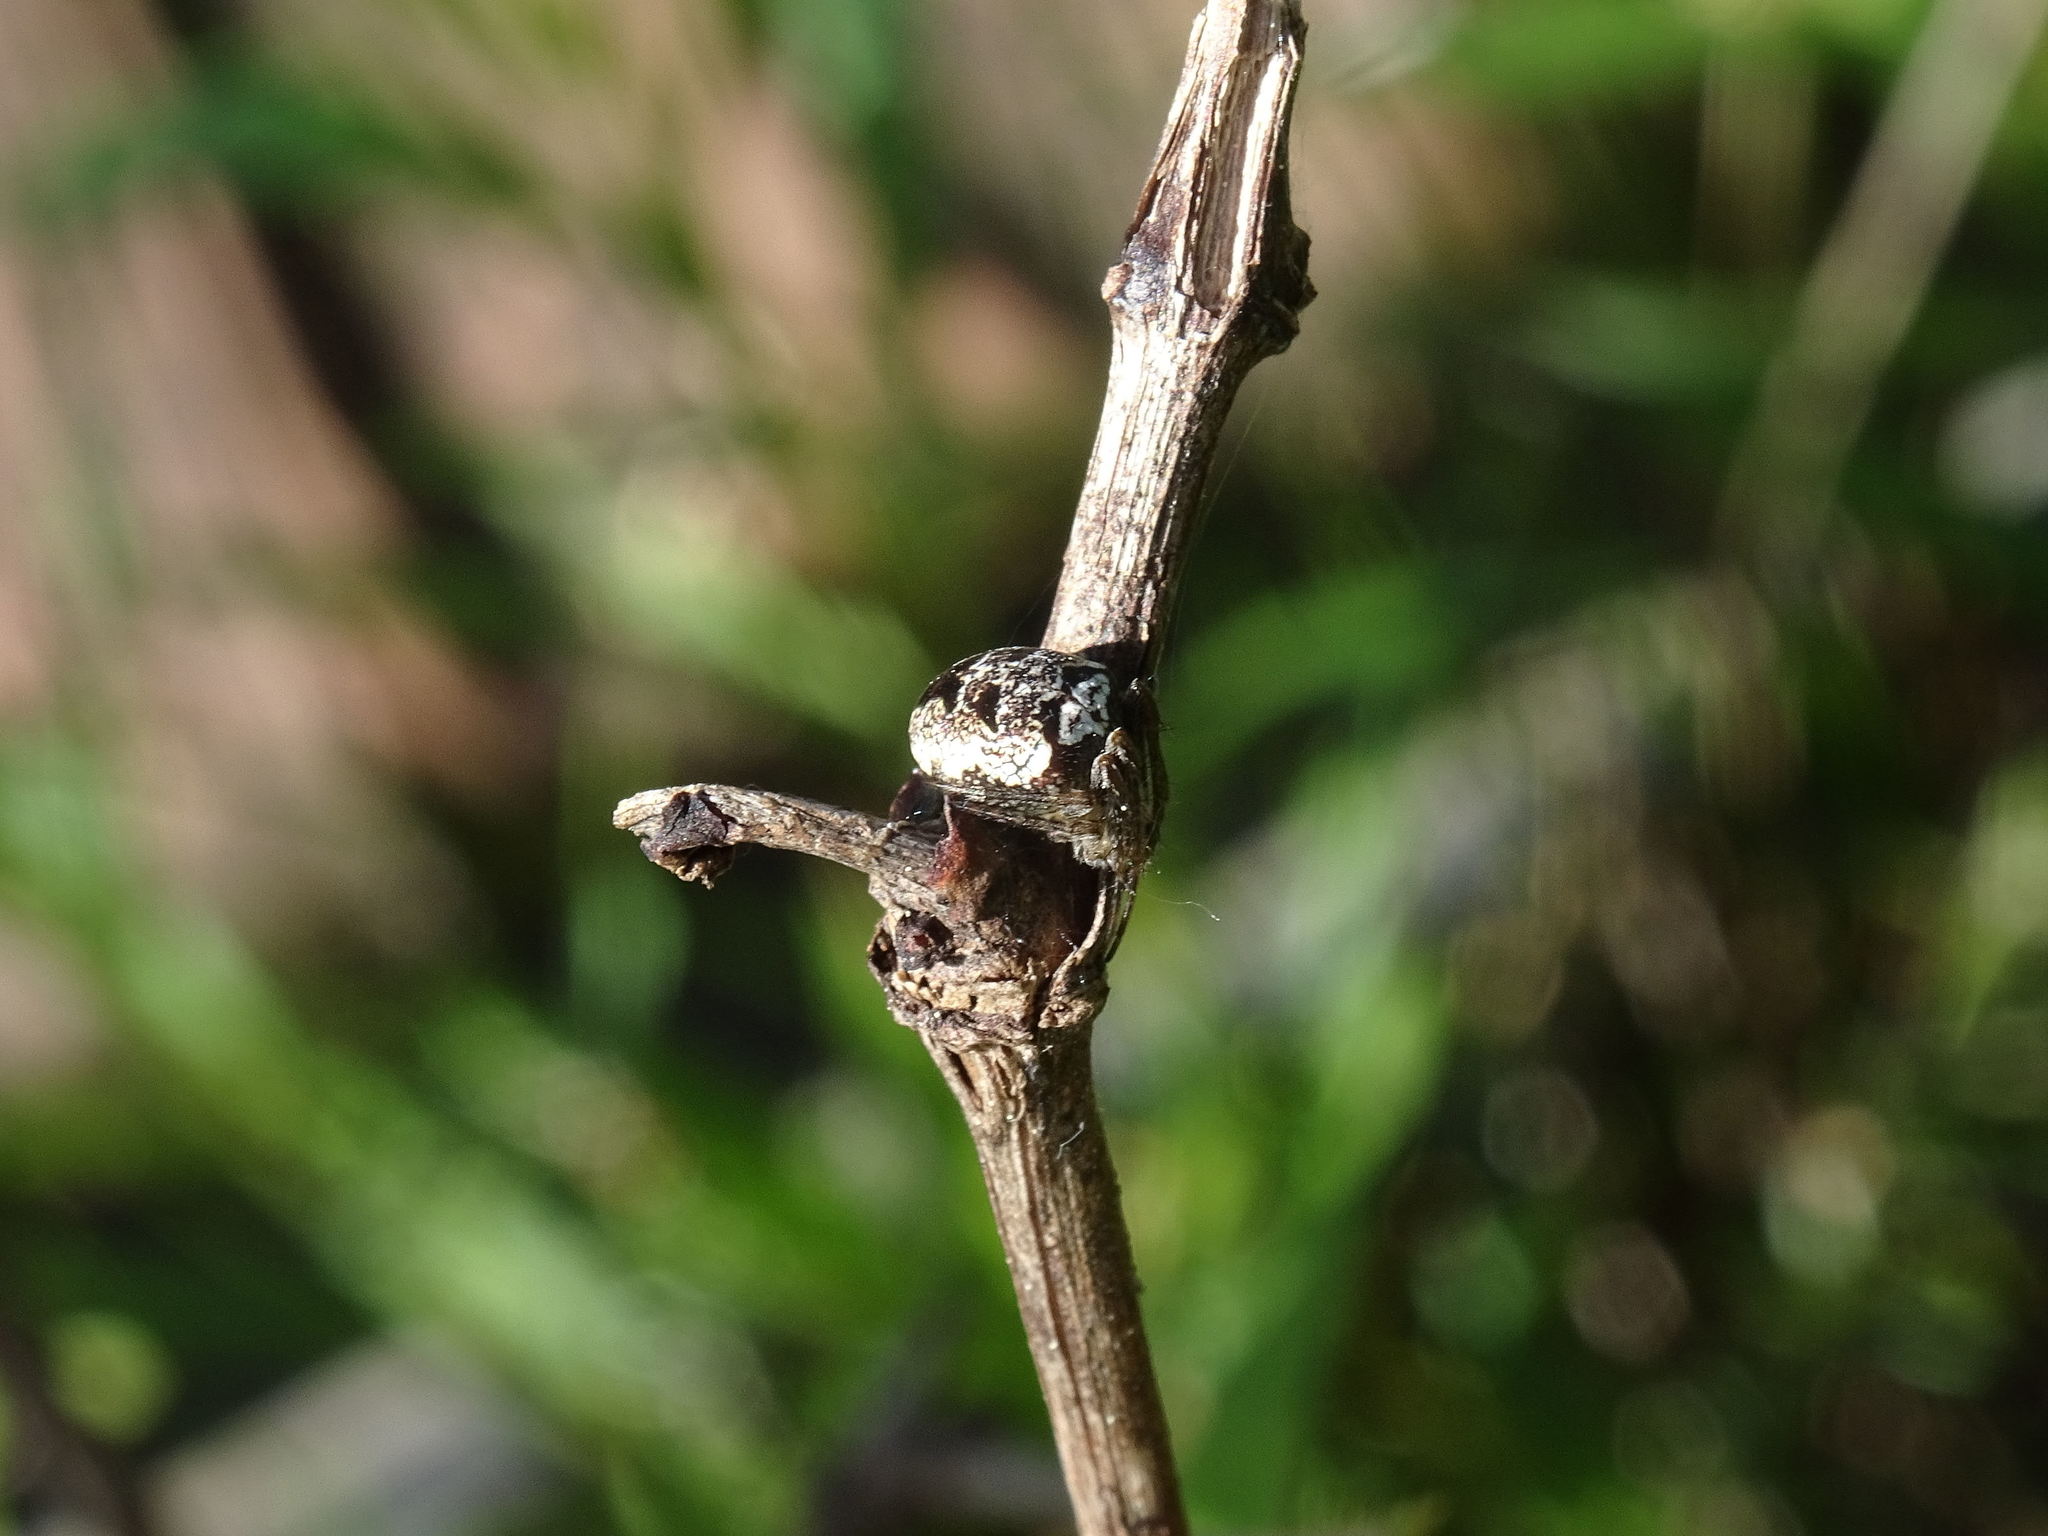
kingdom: Animalia
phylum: Arthropoda
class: Arachnida
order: Araneae
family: Araneidae
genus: Zilla
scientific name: Zilla diodia
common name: Zilla diodia
